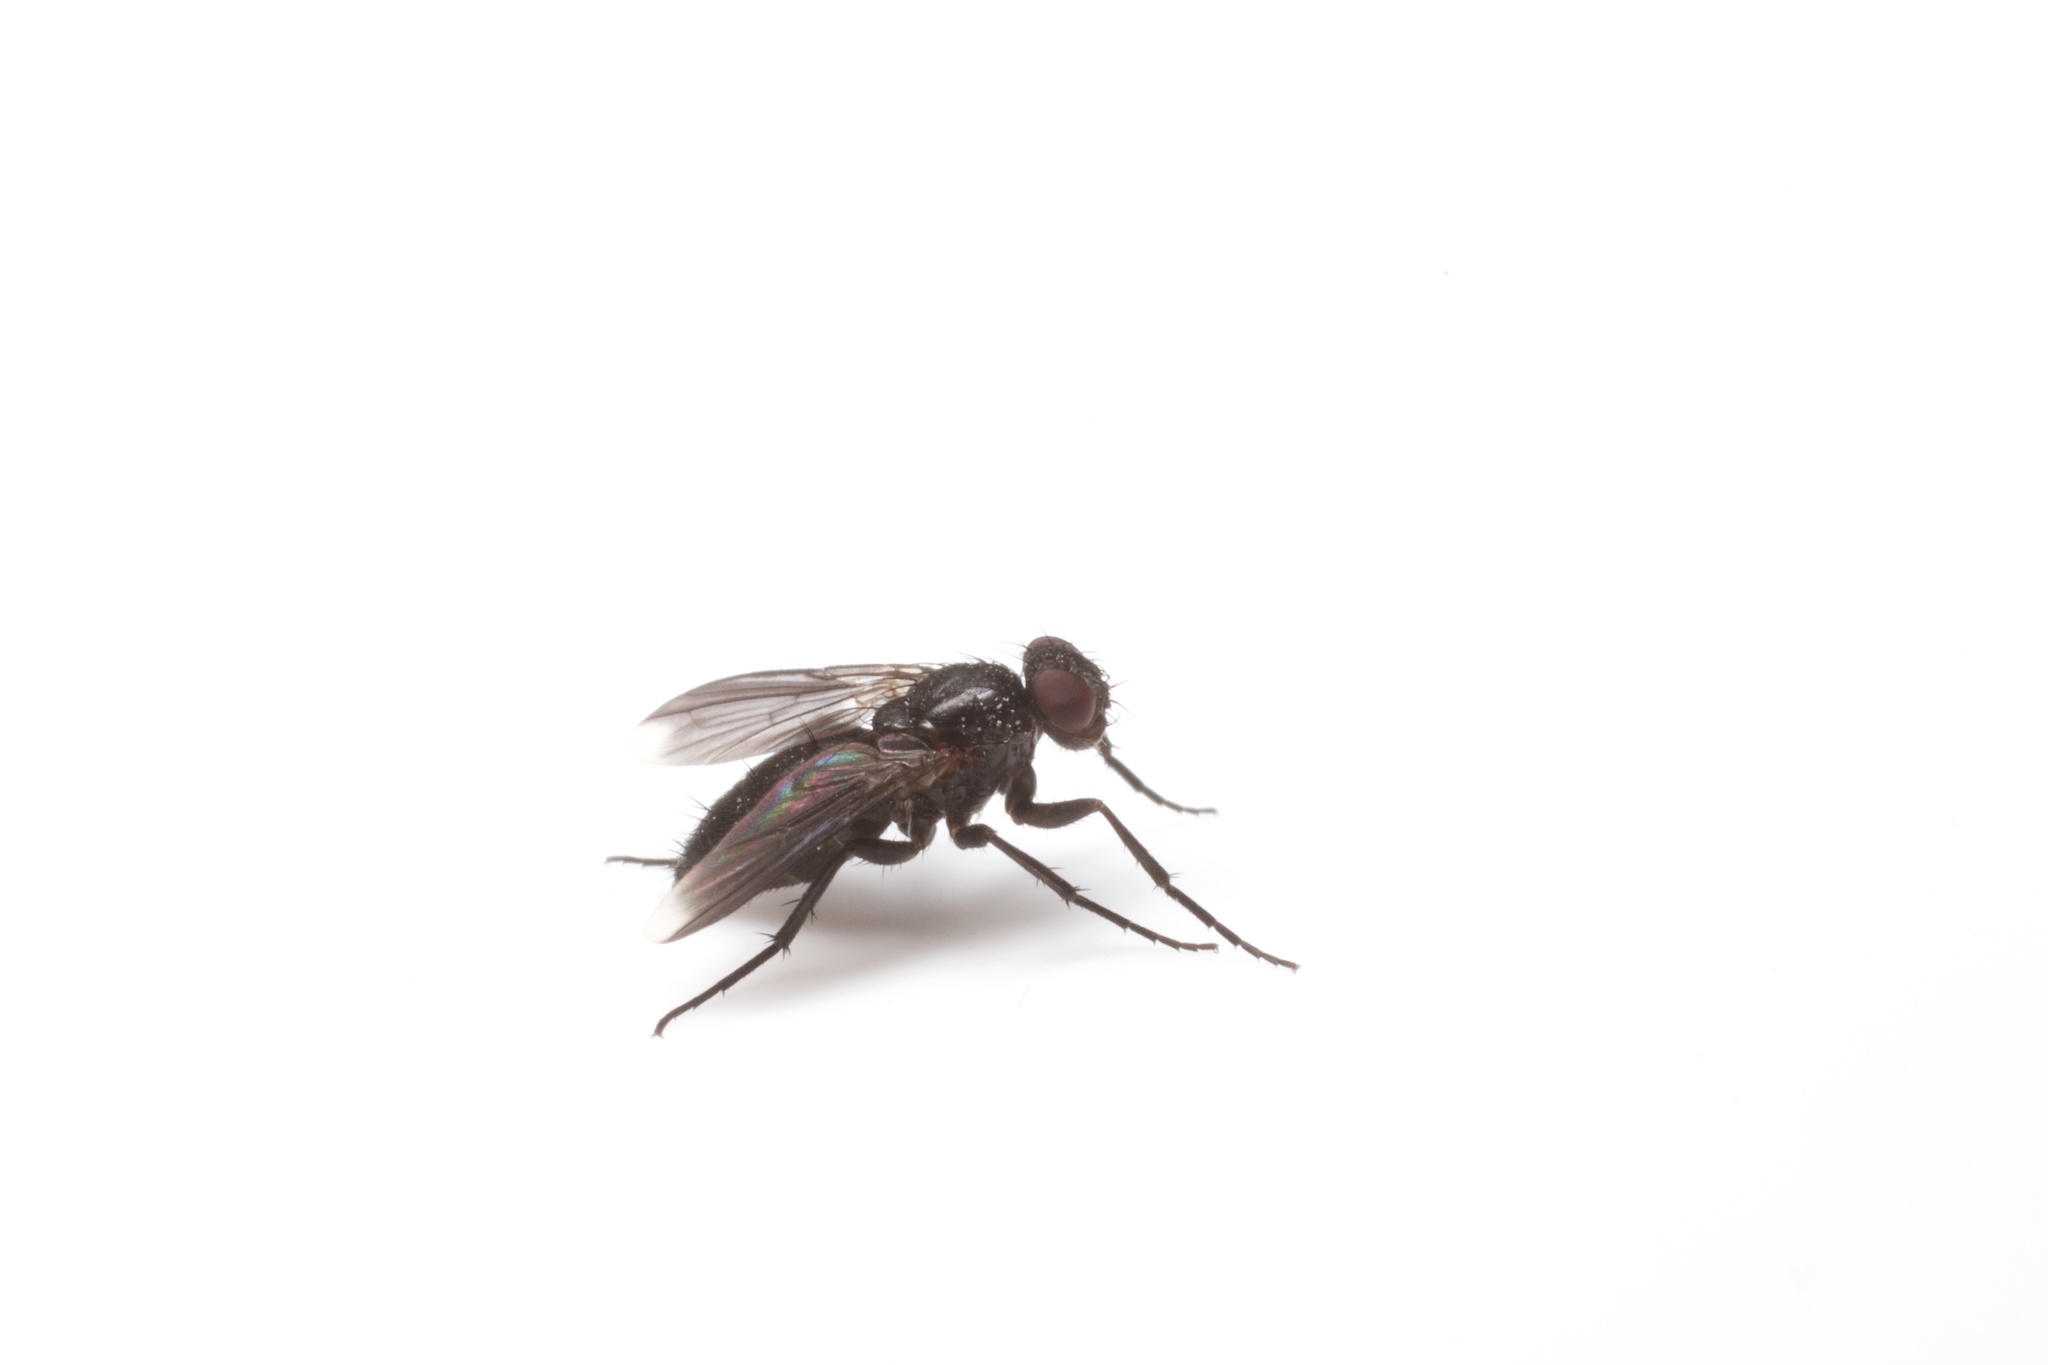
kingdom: Animalia
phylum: Arthropoda
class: Insecta
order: Diptera
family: Calliphoridae
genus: Melanophora
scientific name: Melanophora roralis
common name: Smoky-winged woodlouse-fly
